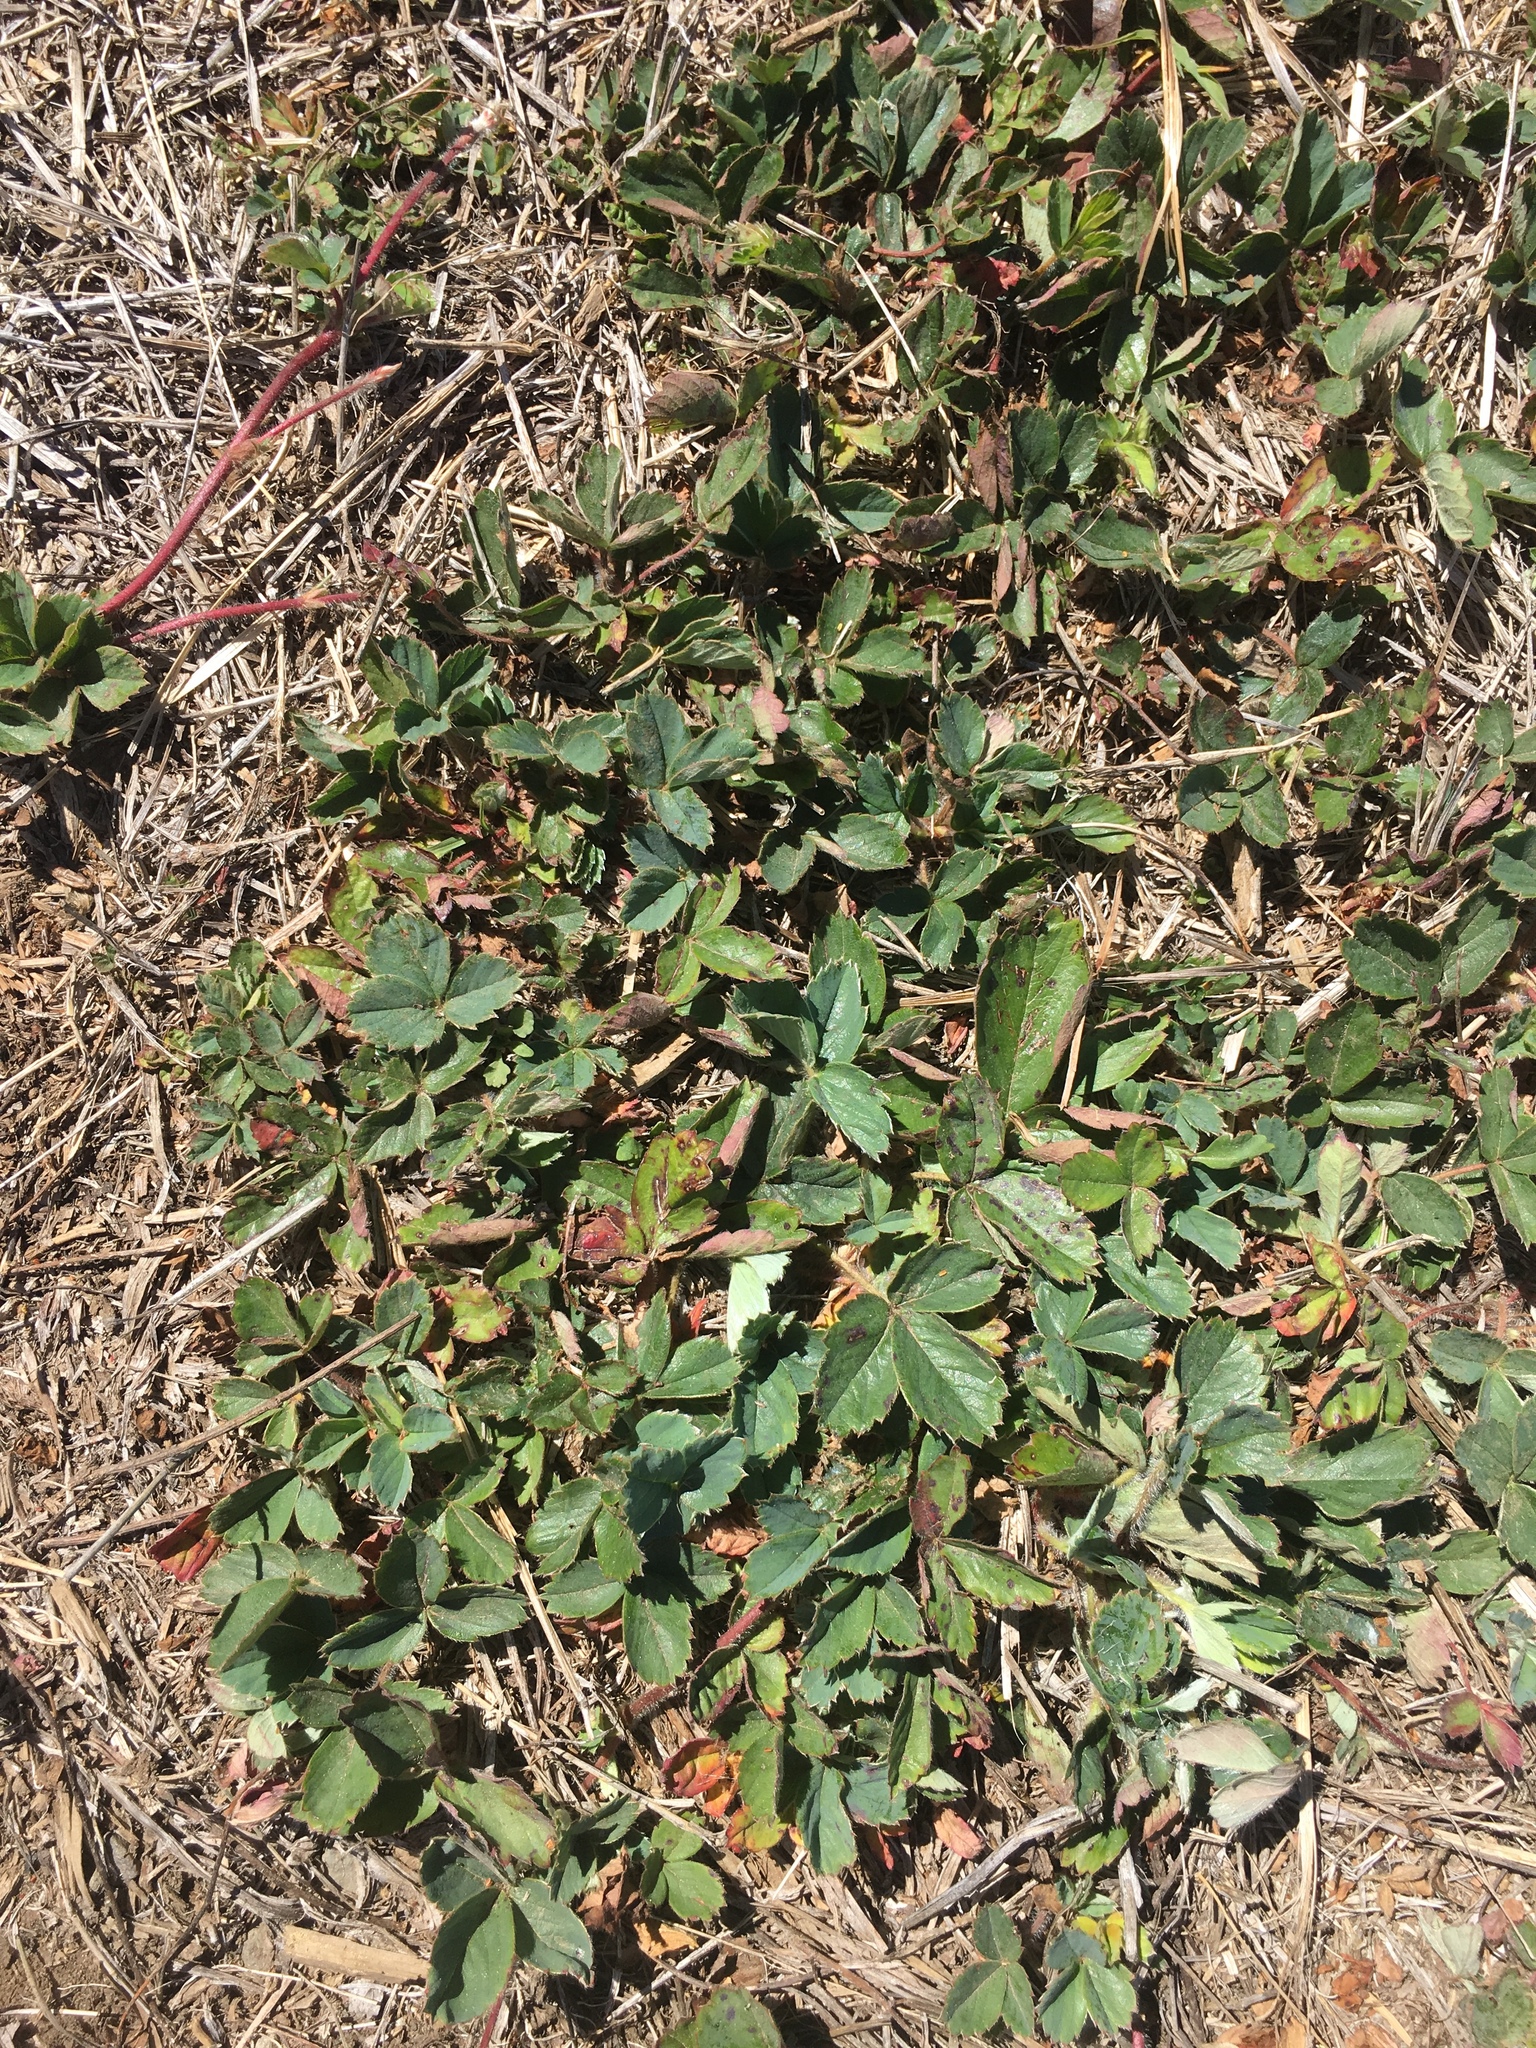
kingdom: Plantae
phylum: Tracheophyta
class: Magnoliopsida
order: Rosales
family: Rosaceae
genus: Fragaria
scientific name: Fragaria ananassa
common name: Garden strawberry
